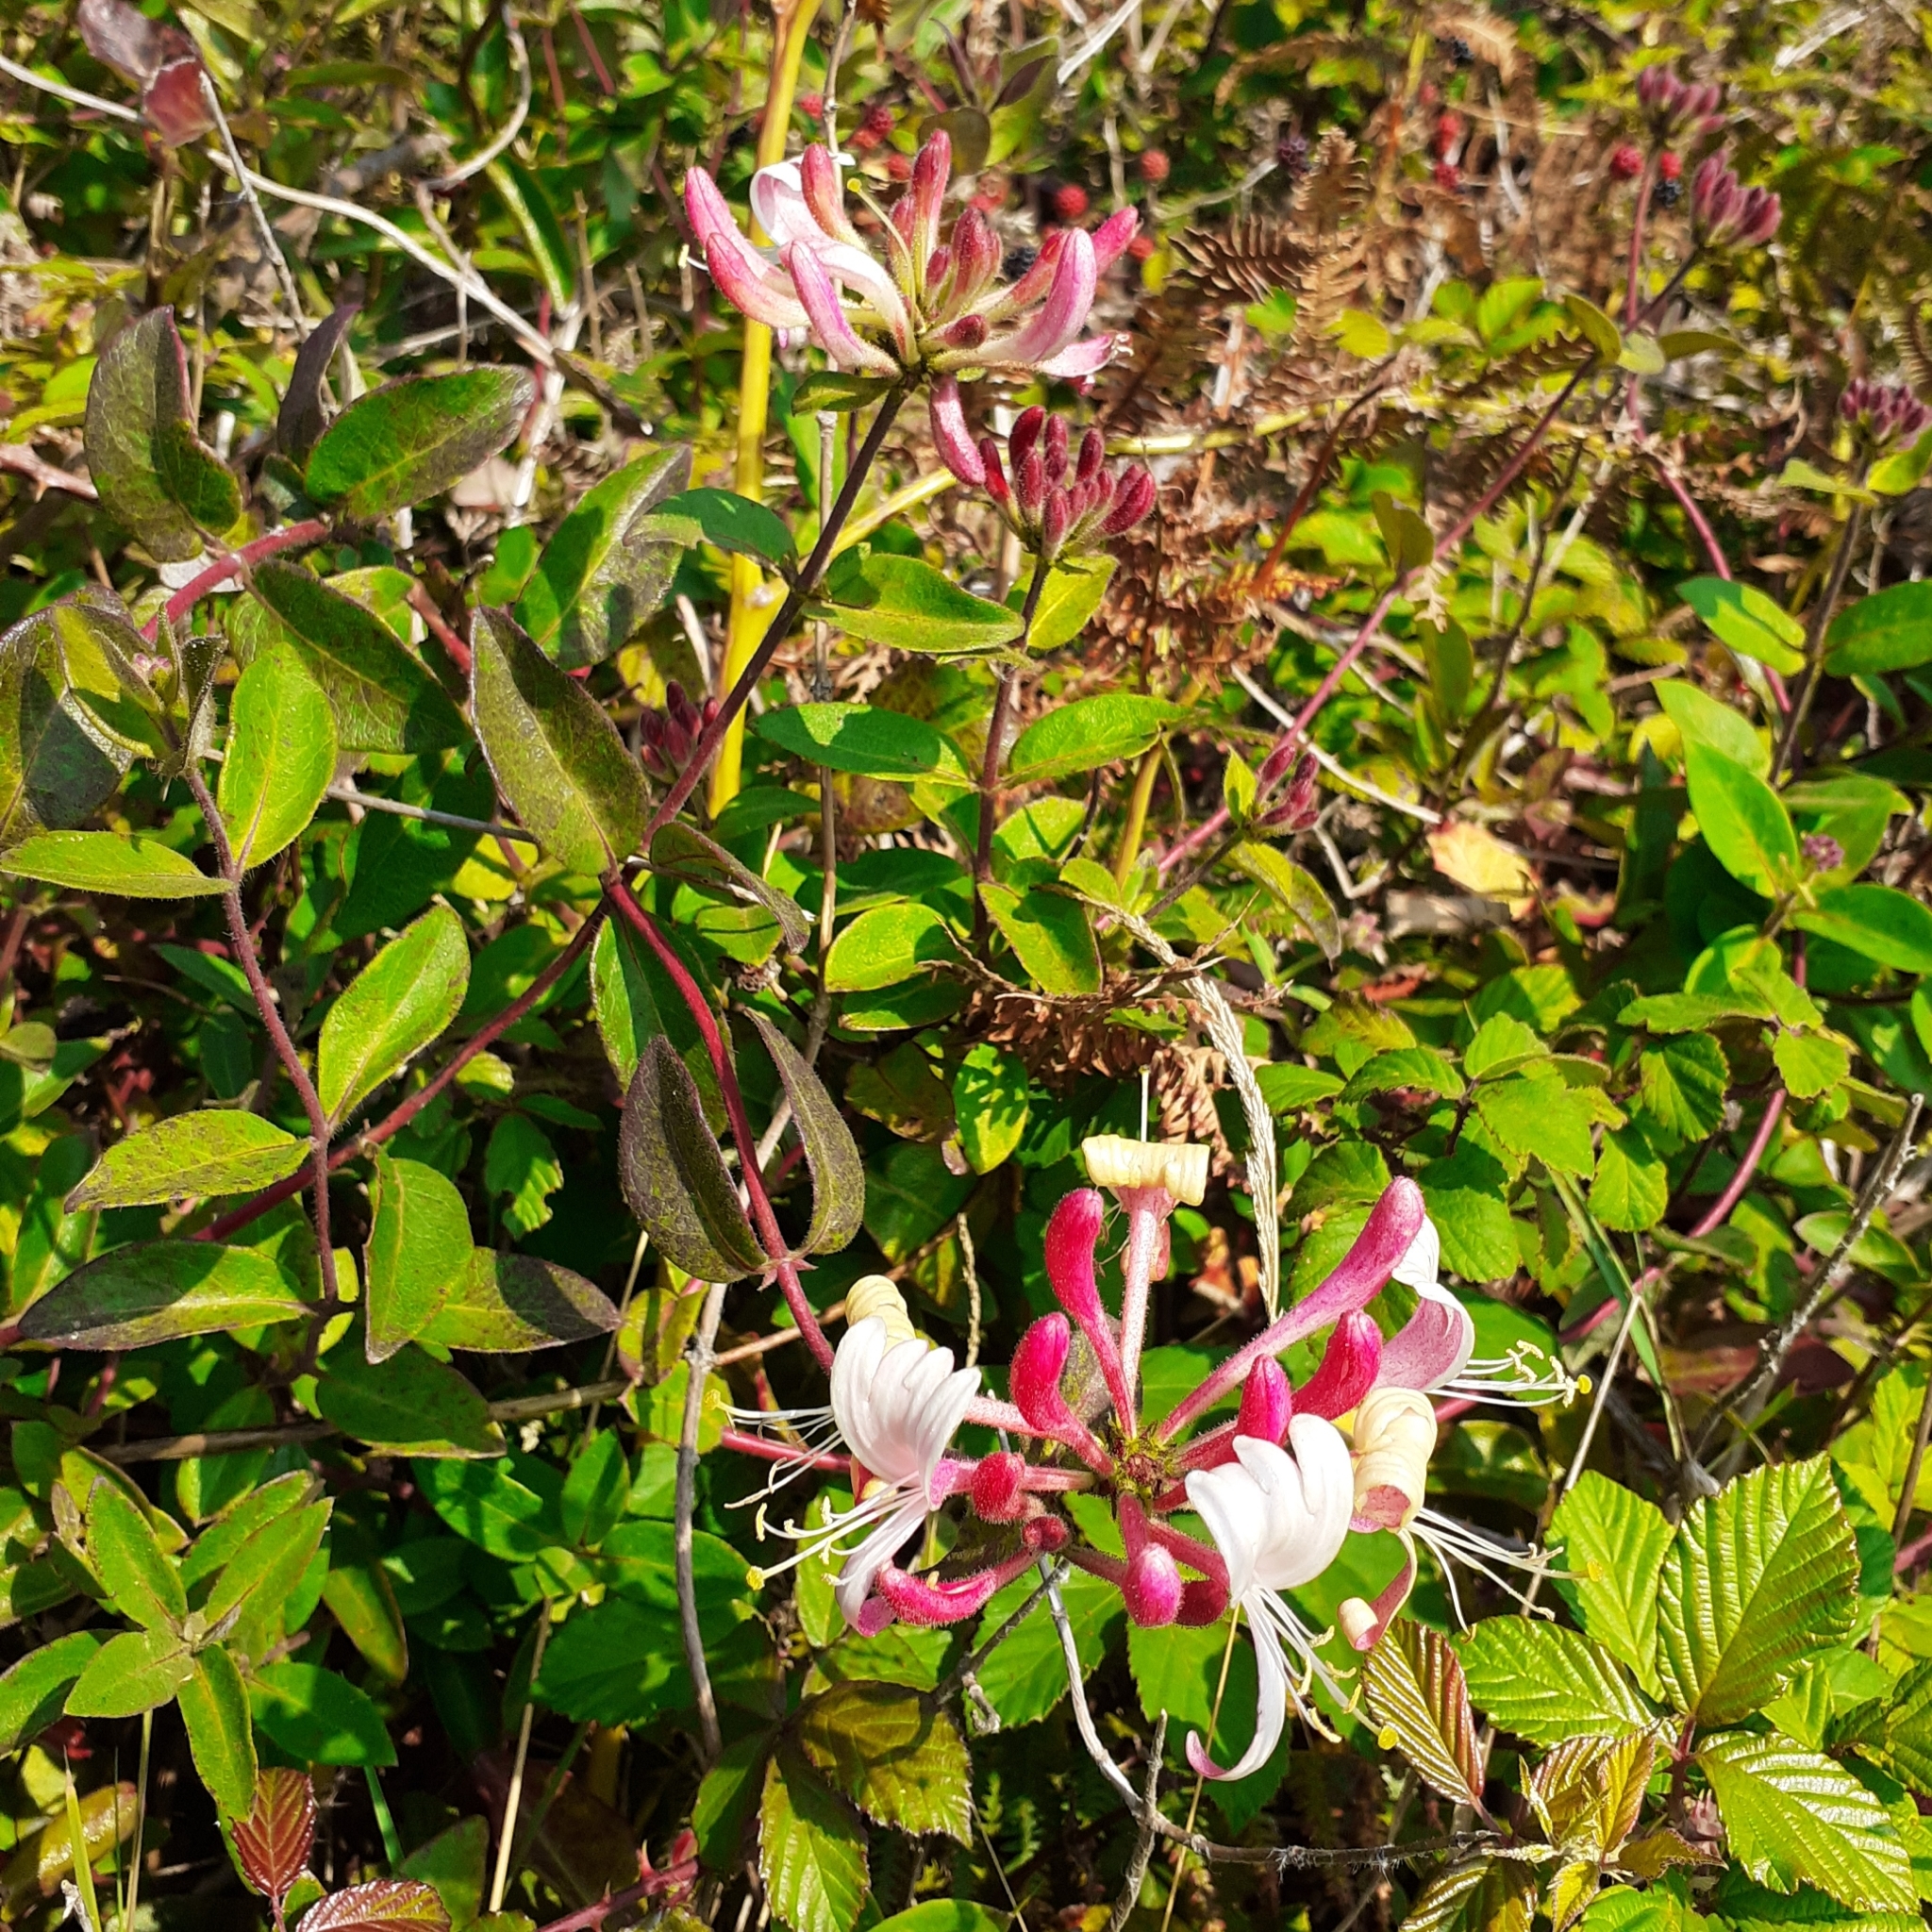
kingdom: Plantae
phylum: Tracheophyta
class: Magnoliopsida
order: Dipsacales
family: Caprifoliaceae
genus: Lonicera
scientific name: Lonicera periclymenum
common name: European honeysuckle
